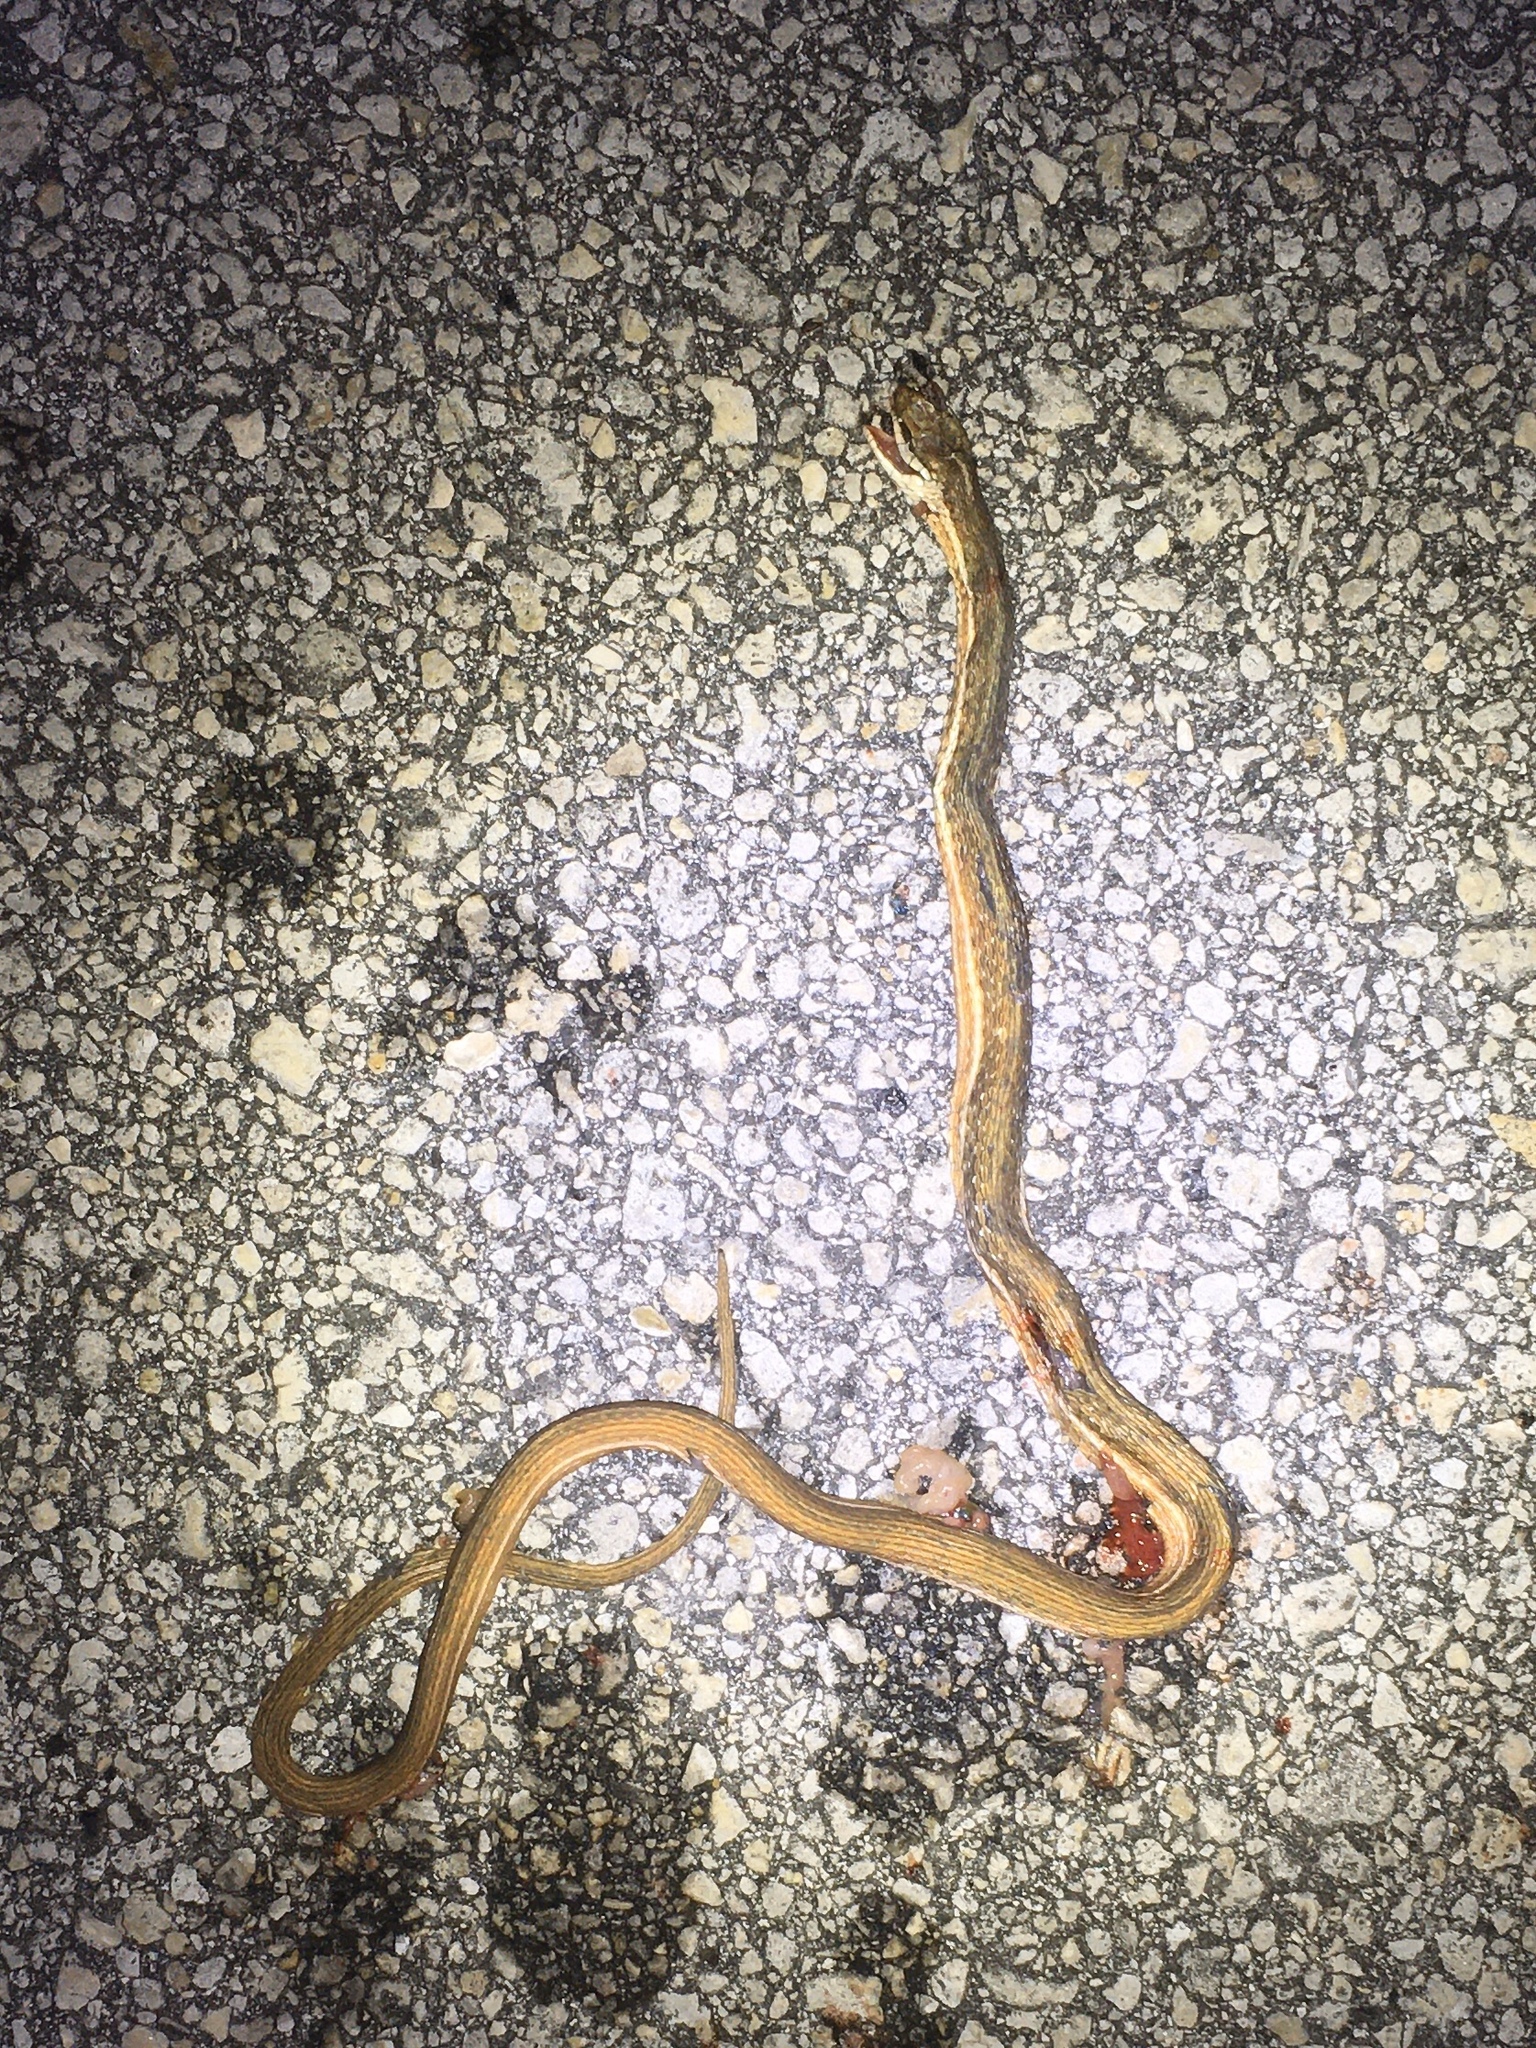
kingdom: Animalia
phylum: Chordata
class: Squamata
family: Colubridae
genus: Thamnophis
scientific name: Thamnophis saurita
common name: Eastern ribbonsnake
